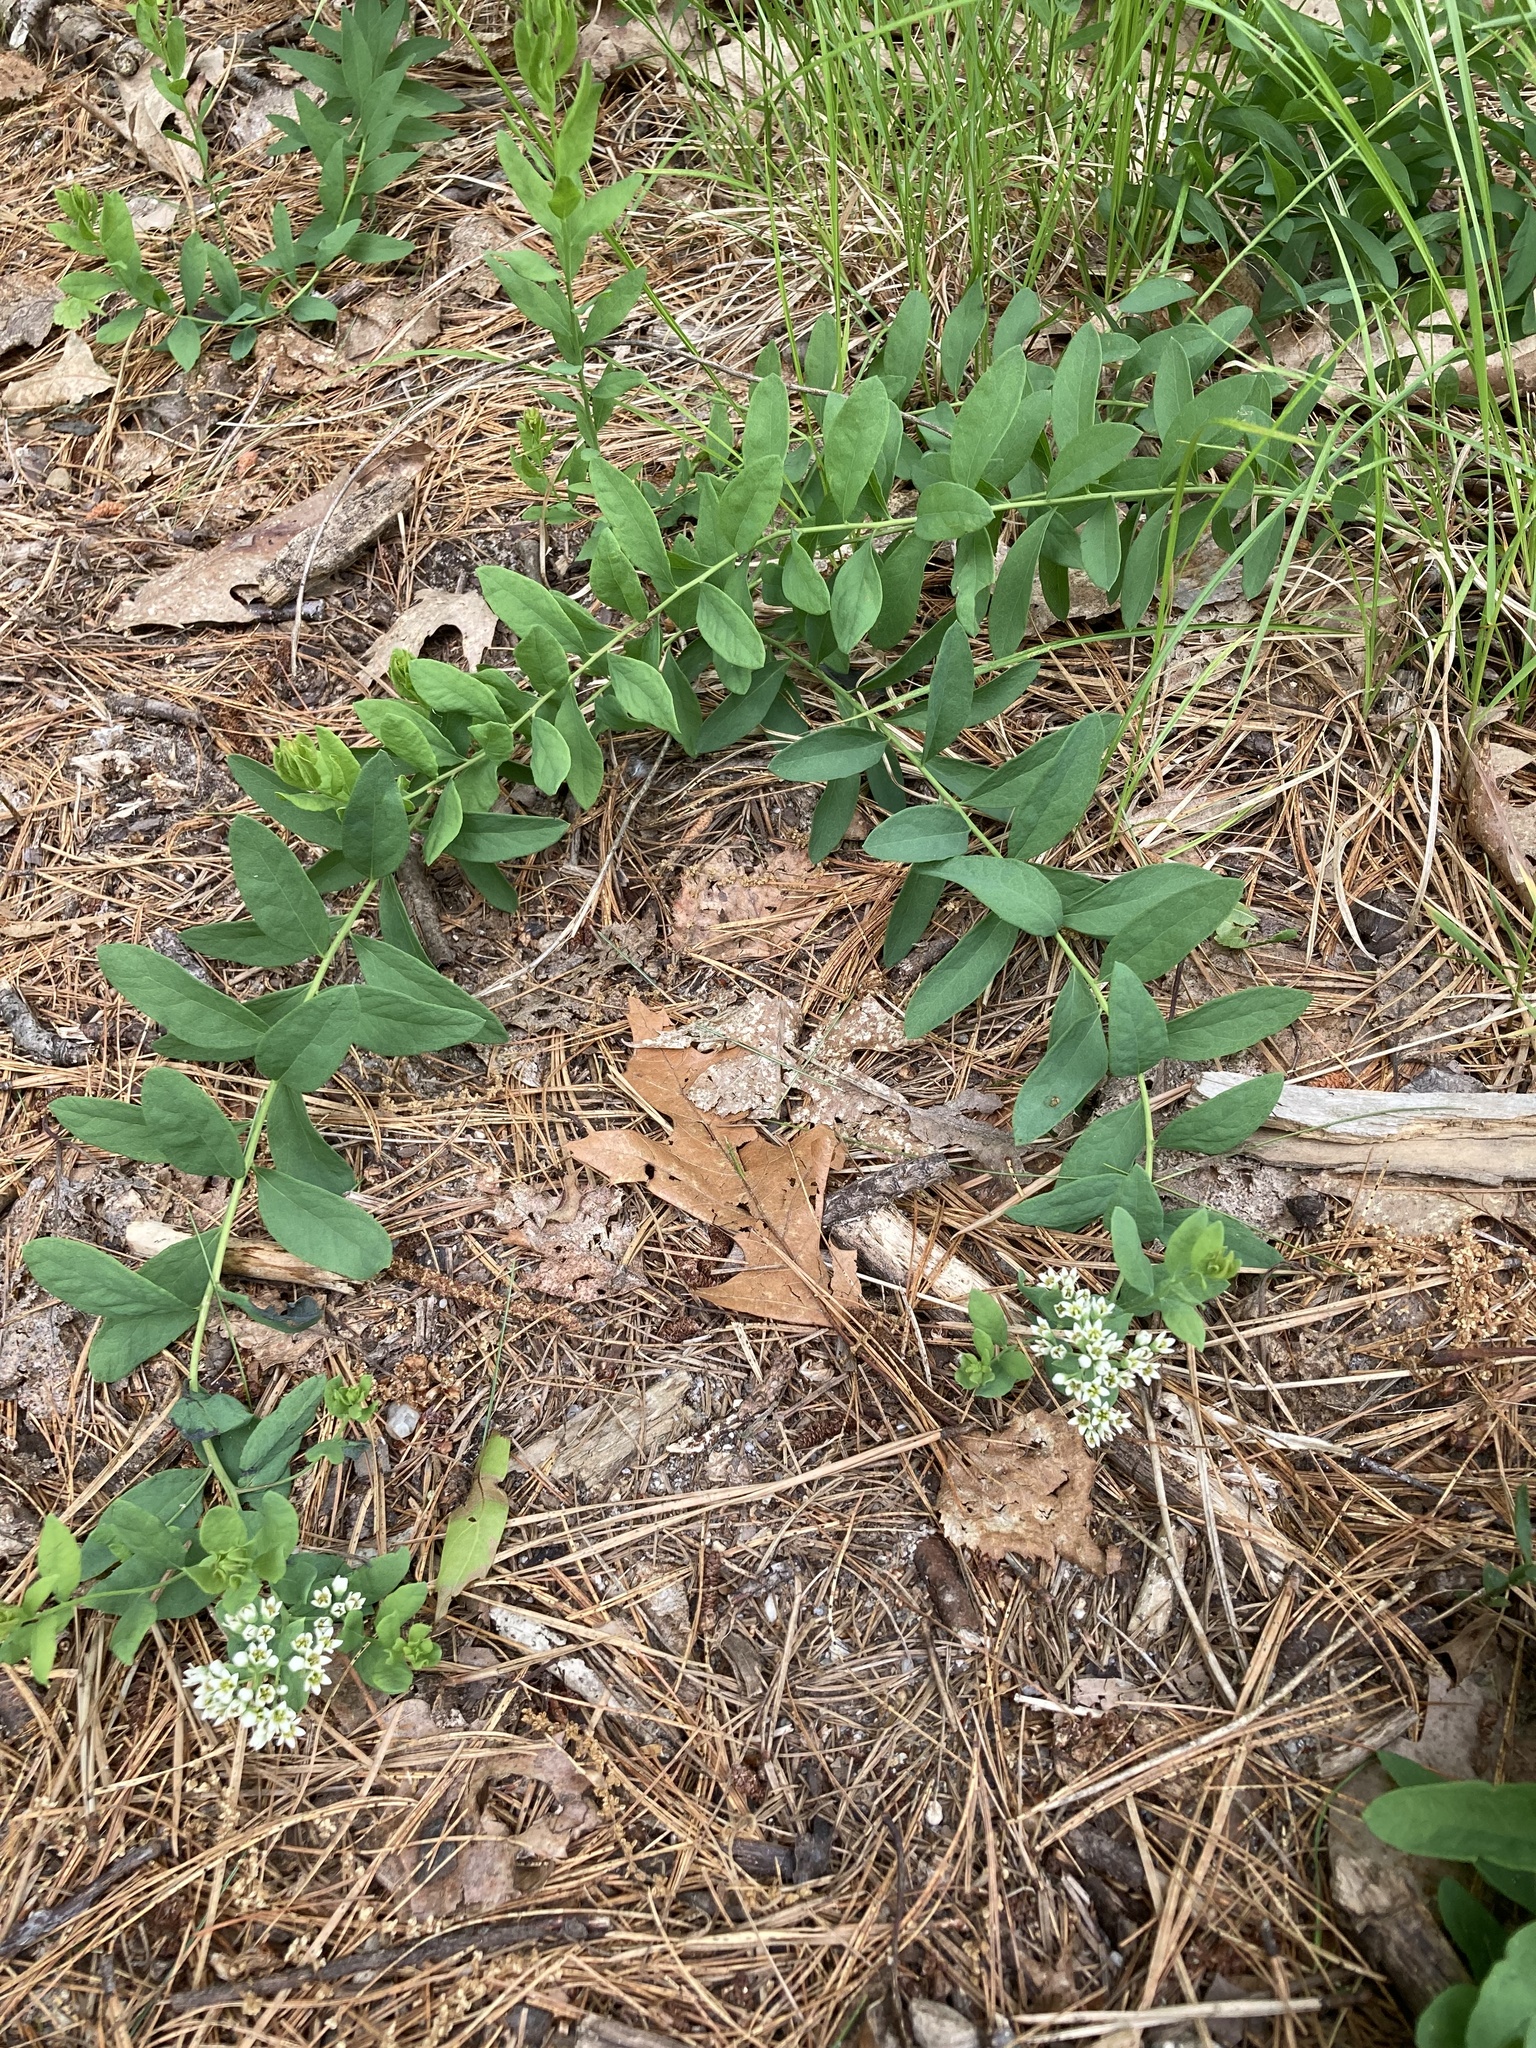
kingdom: Plantae
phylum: Tracheophyta
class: Magnoliopsida
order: Santalales
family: Comandraceae
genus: Comandra
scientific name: Comandra umbellata
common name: Bastard toadflax
